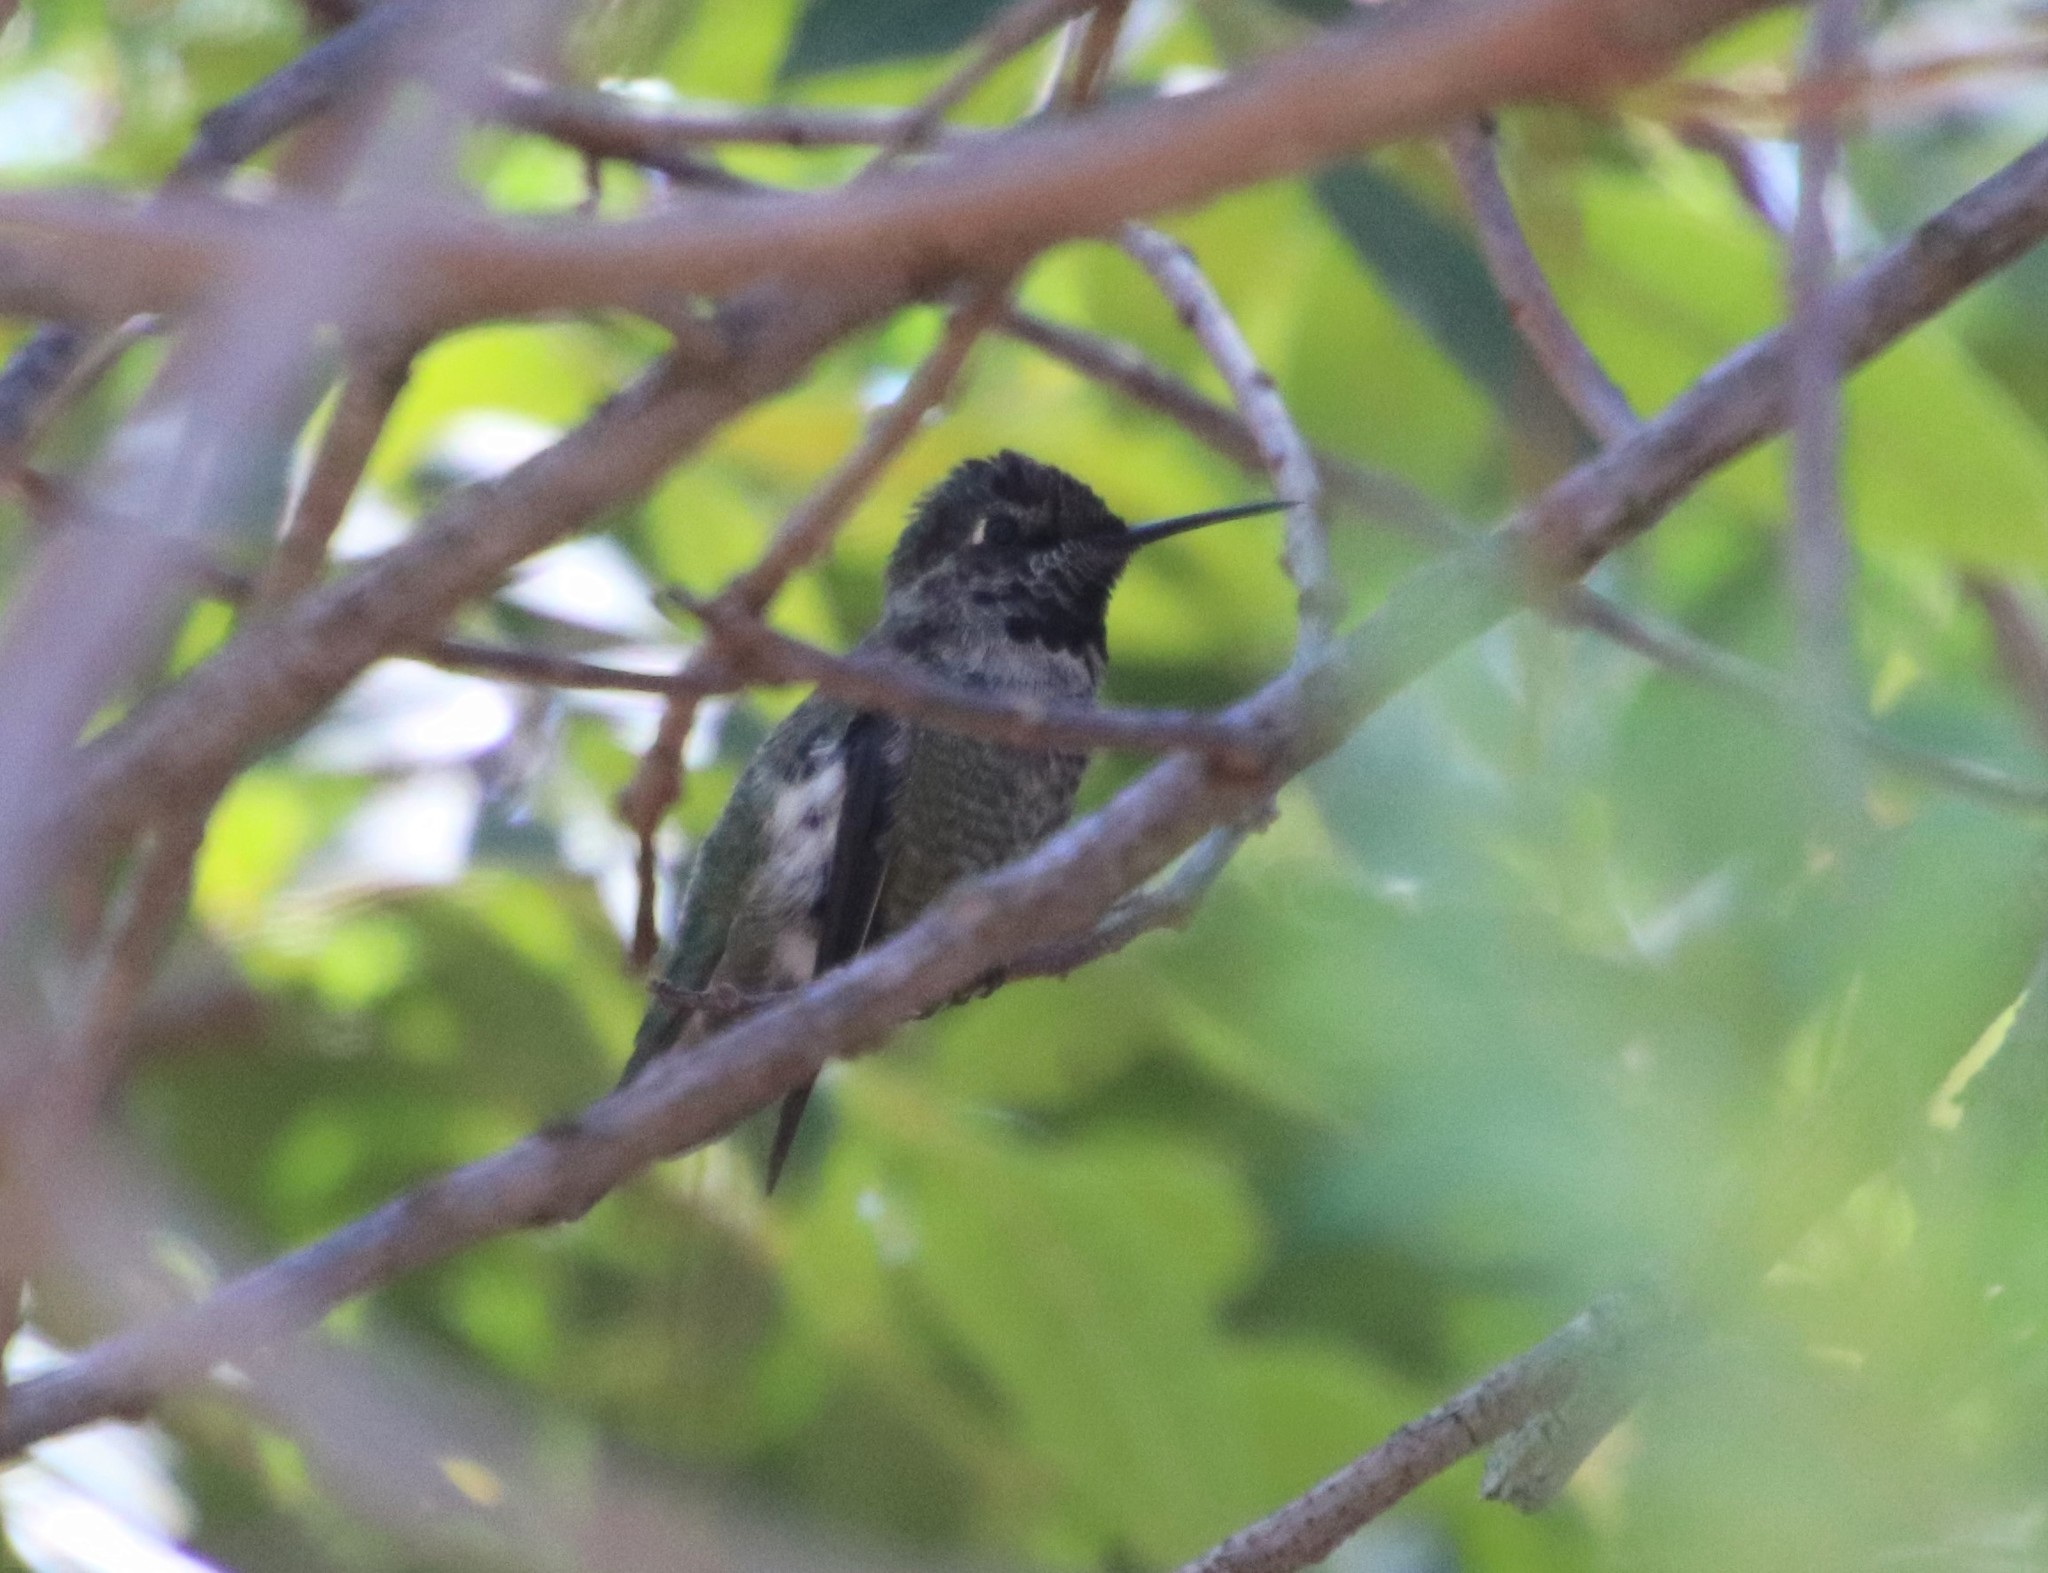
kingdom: Animalia
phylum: Chordata
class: Aves
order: Apodiformes
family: Trochilidae
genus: Calypte
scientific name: Calypte anna
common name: Anna's hummingbird
